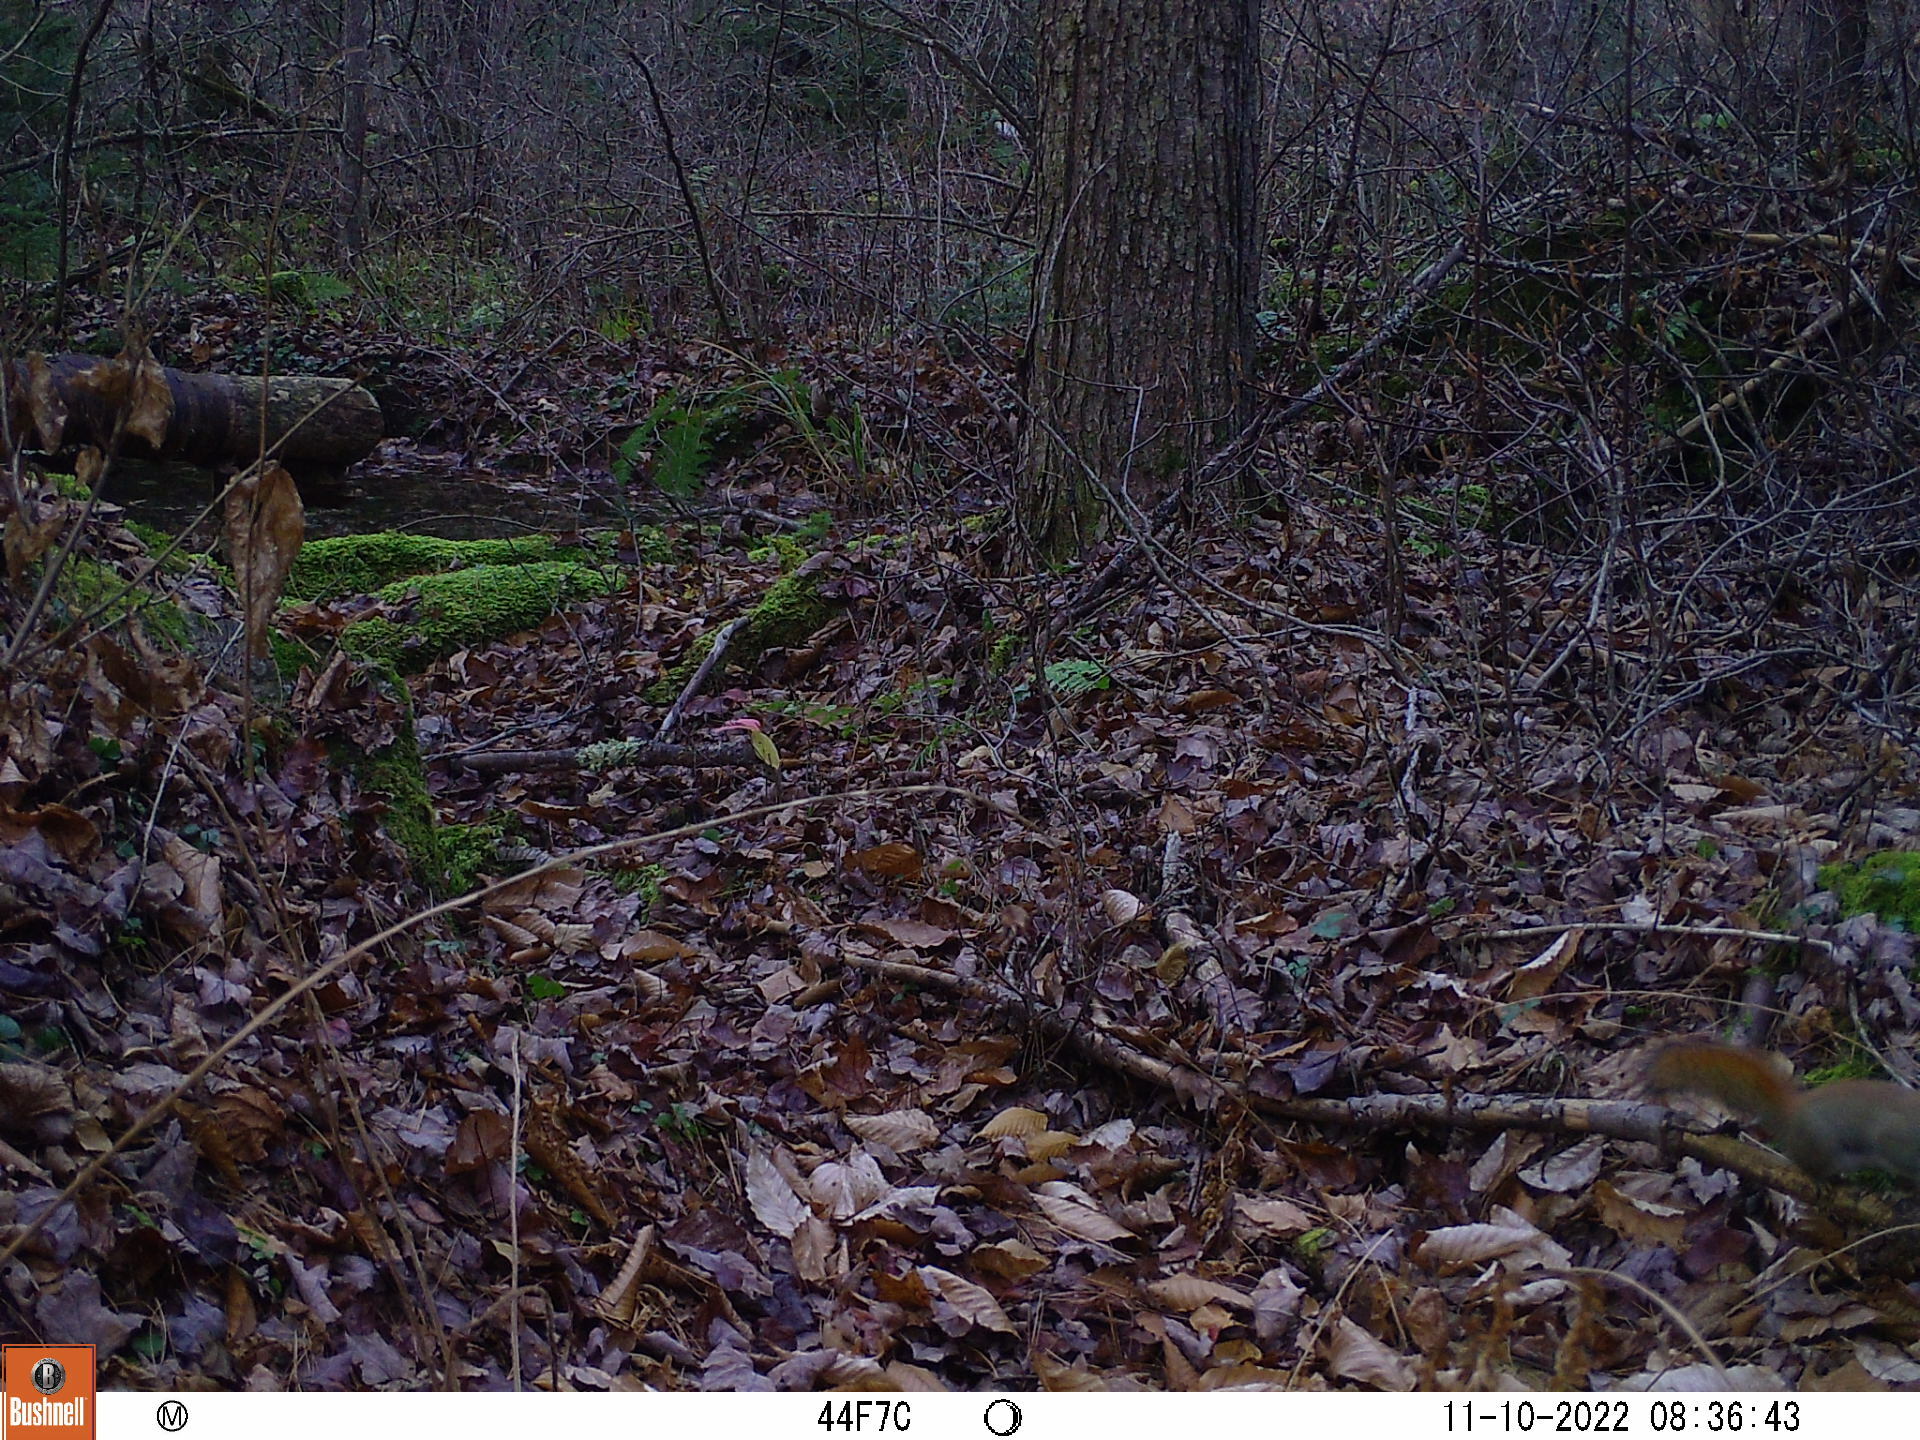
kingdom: Animalia
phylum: Chordata
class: Mammalia
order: Rodentia
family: Sciuridae
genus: Tamiasciurus
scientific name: Tamiasciurus hudsonicus
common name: Red squirrel
